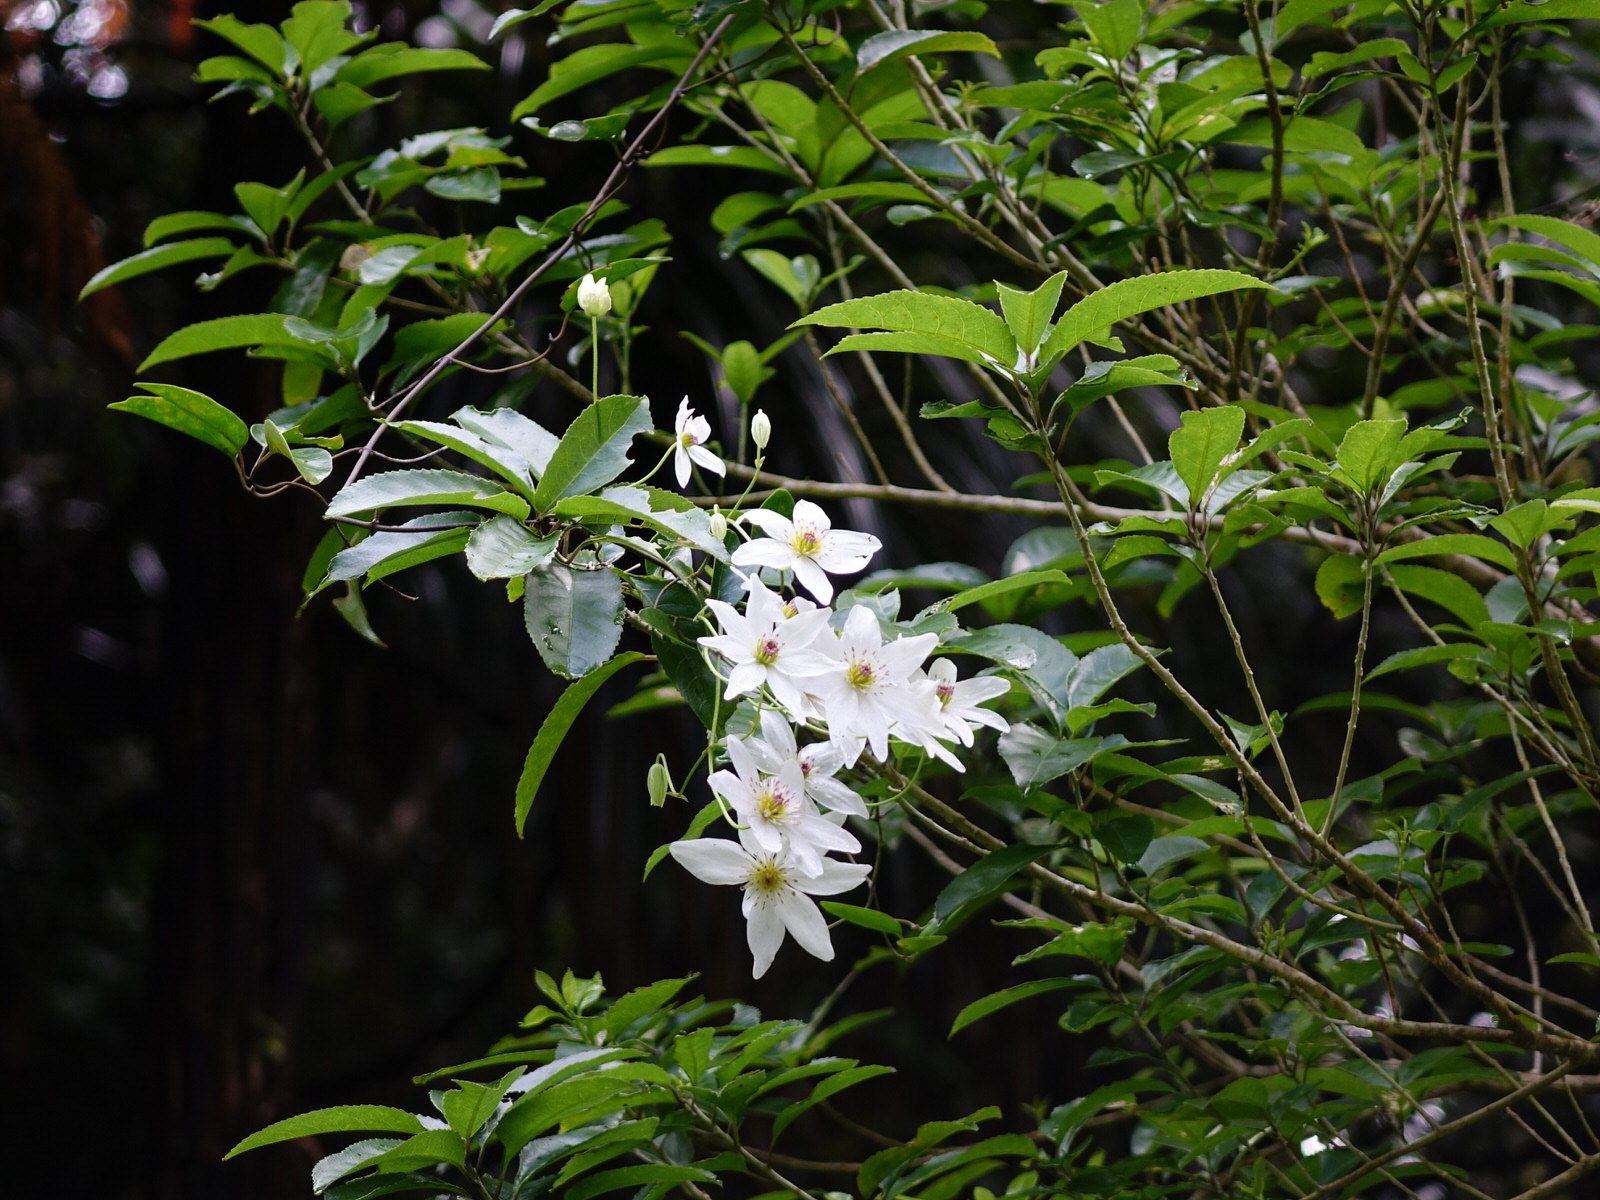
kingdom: Plantae
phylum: Tracheophyta
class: Magnoliopsida
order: Ranunculales
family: Ranunculaceae
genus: Clematis
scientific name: Clematis paniculata
